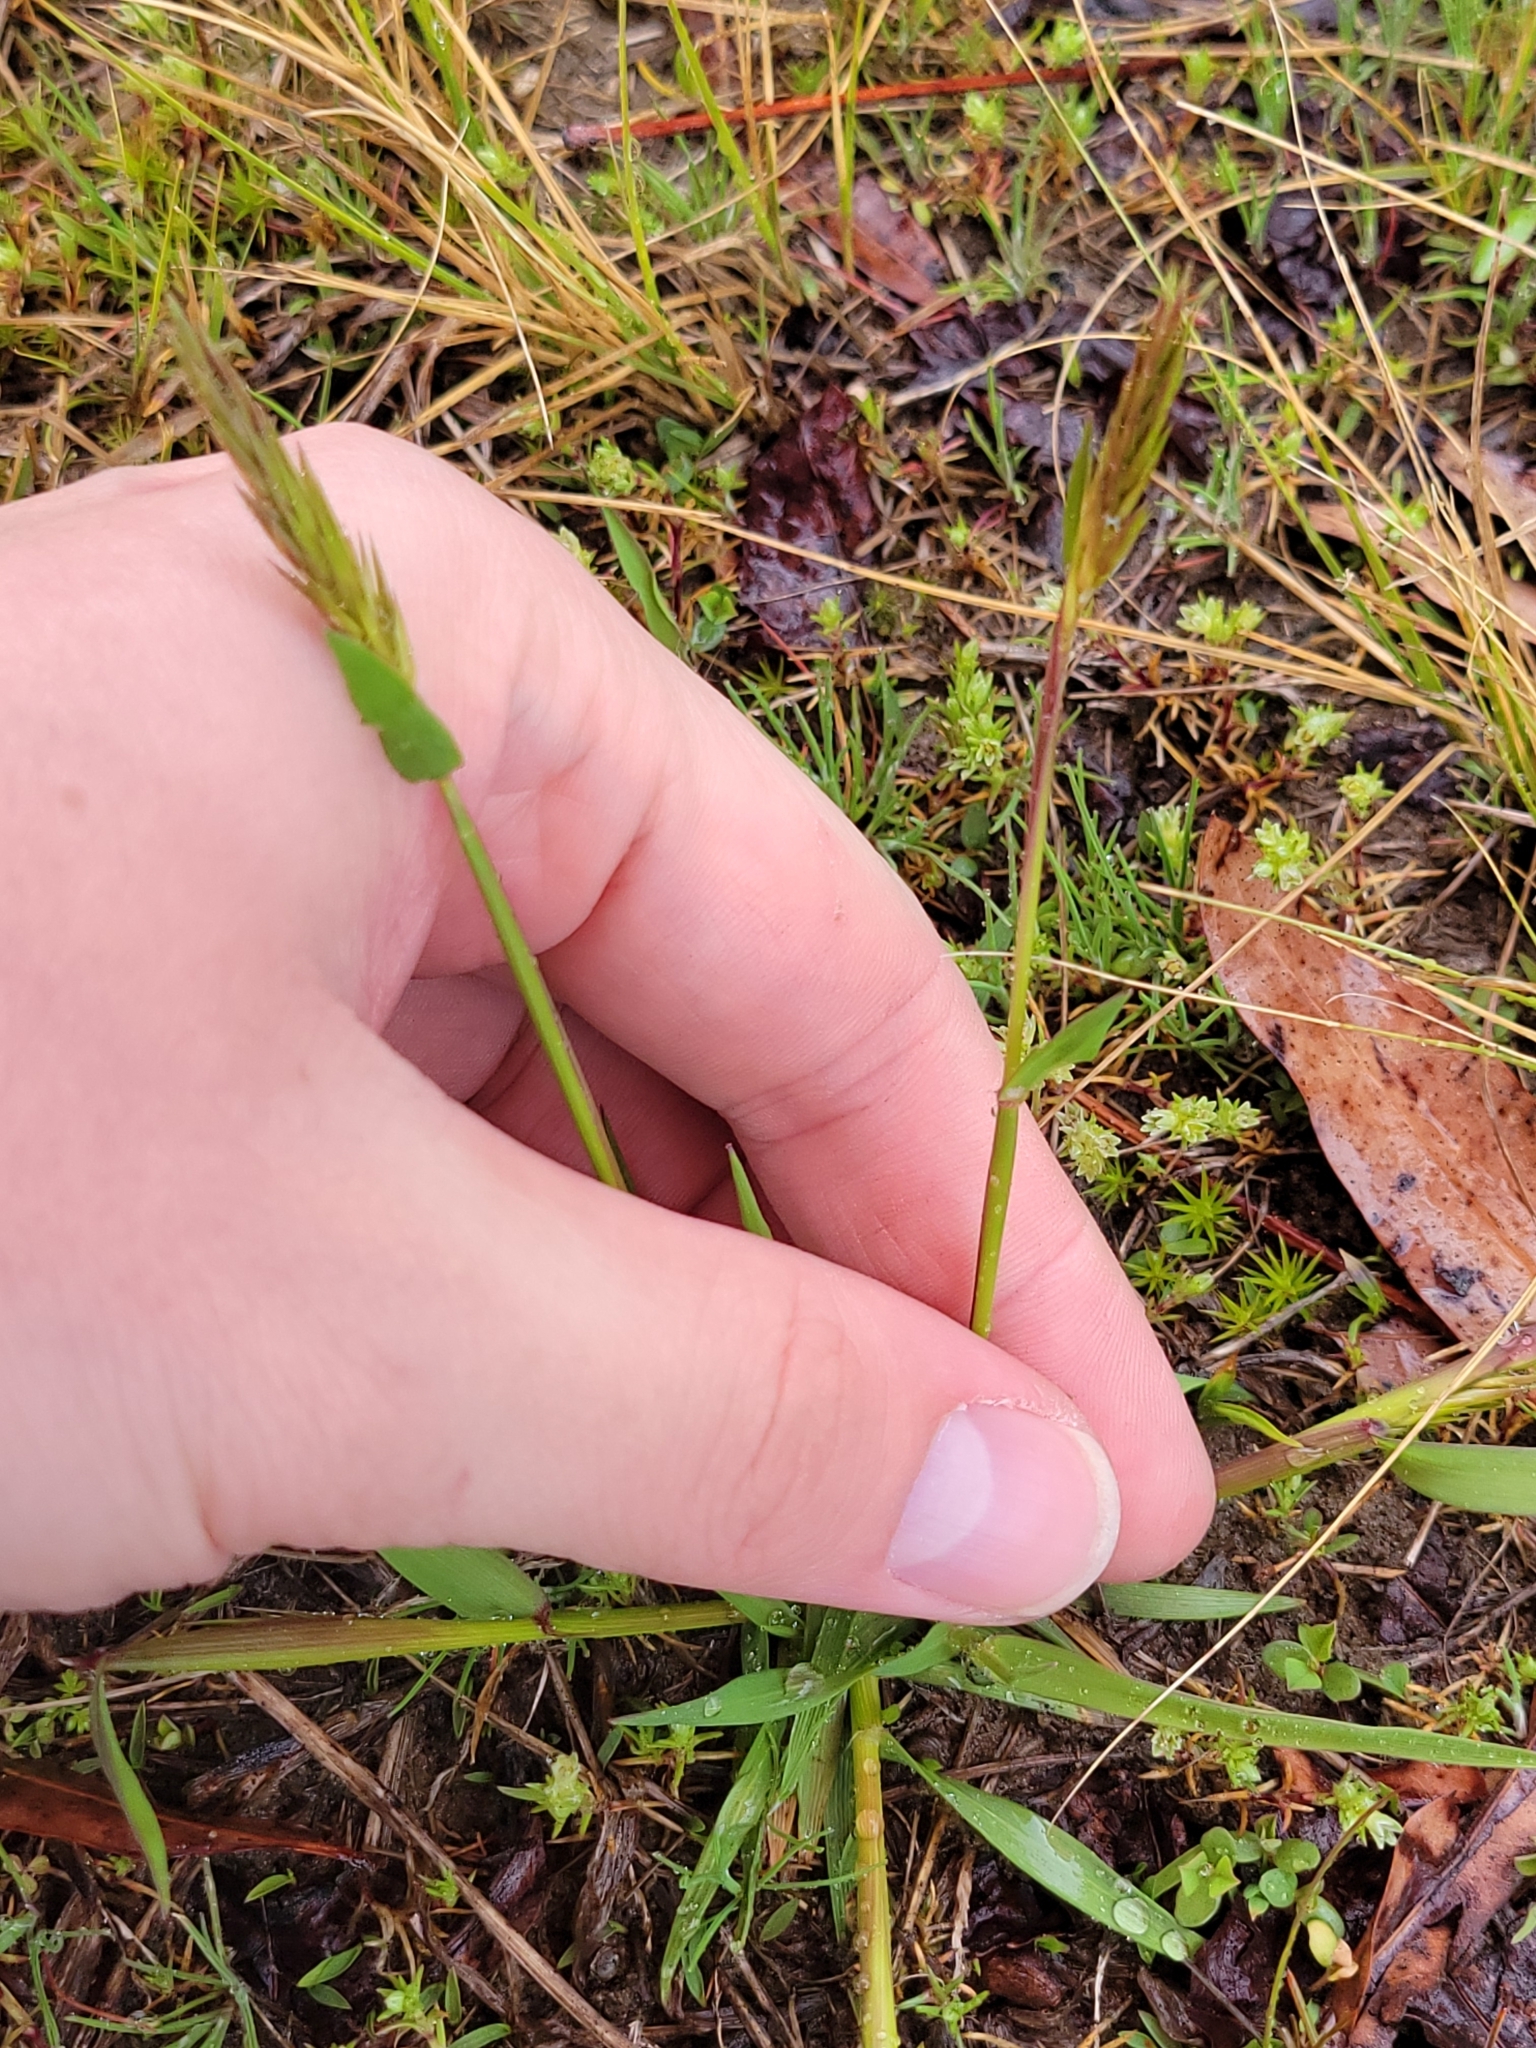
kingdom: Plantae
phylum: Tracheophyta
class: Liliopsida
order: Poales
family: Poaceae
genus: Anthoxanthum
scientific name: Anthoxanthum odoratum
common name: Sweet vernalgrass
